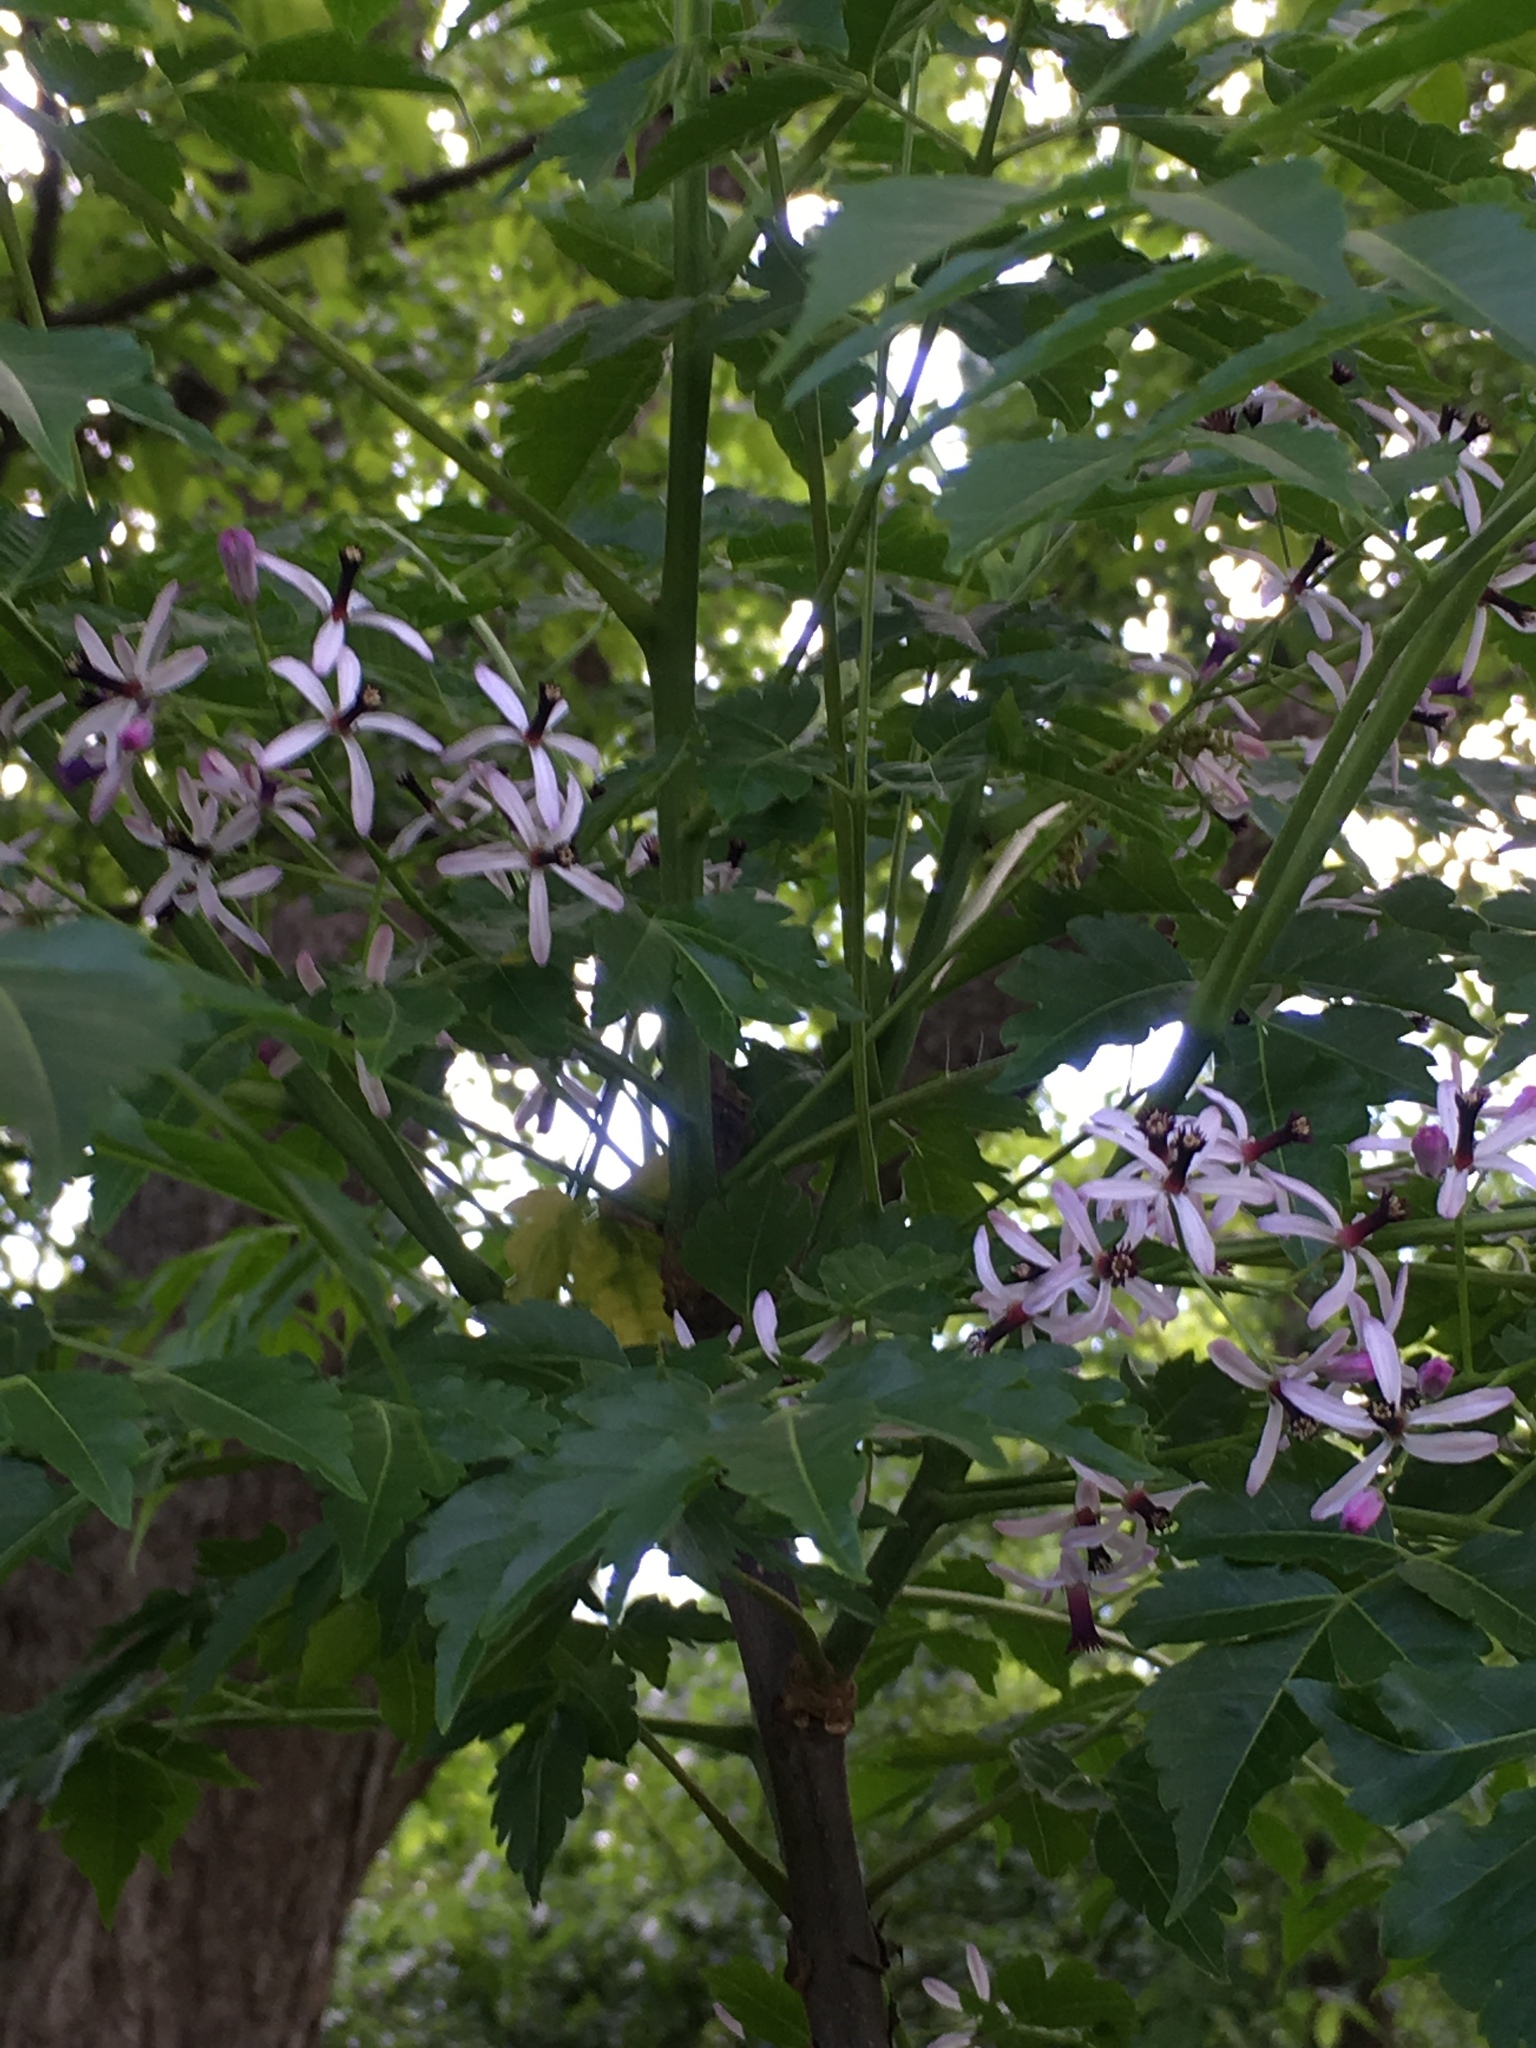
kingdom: Plantae
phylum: Tracheophyta
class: Magnoliopsida
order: Sapindales
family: Meliaceae
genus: Melia
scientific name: Melia azedarach
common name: Chinaberrytree
